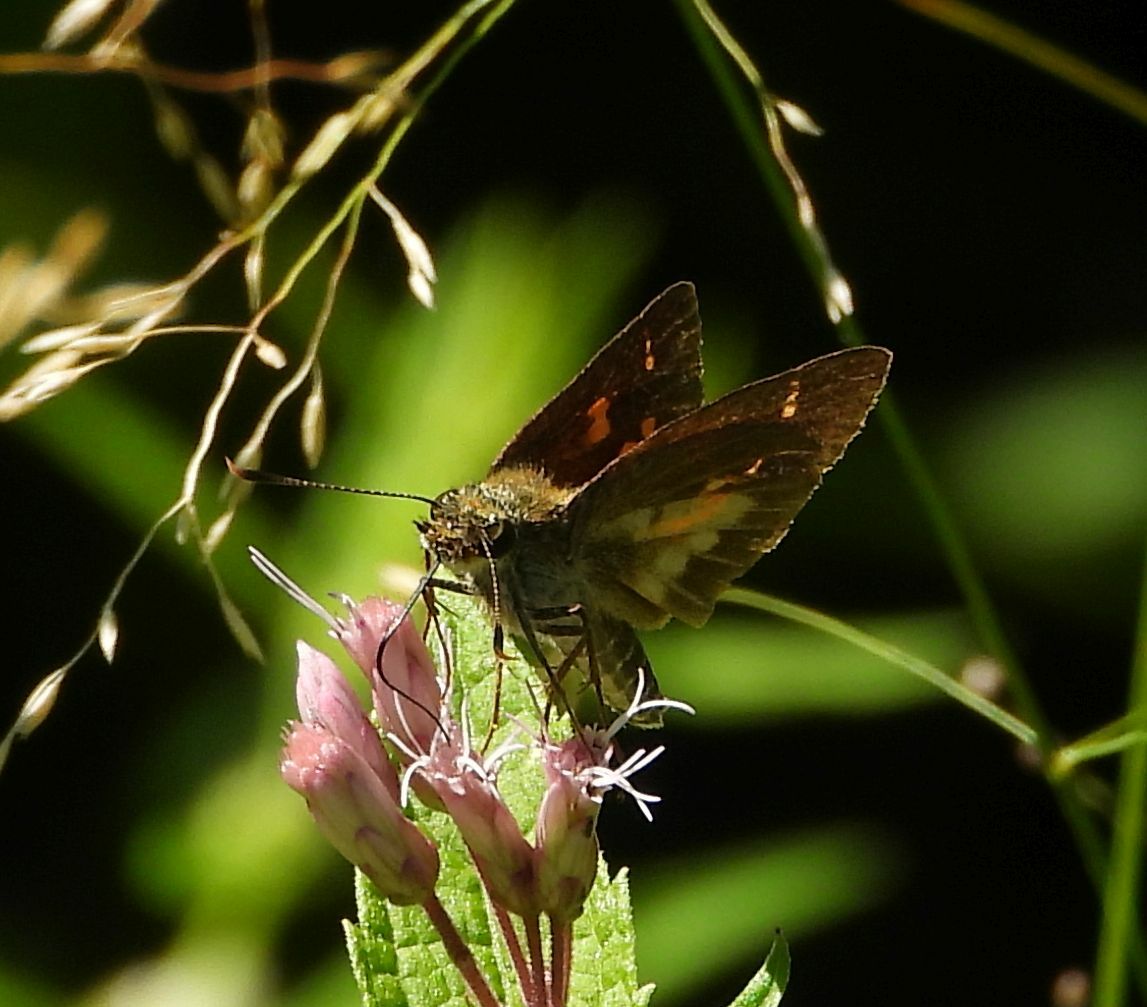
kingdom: Animalia
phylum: Arthropoda
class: Insecta
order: Lepidoptera
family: Hesperiidae
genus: Poanes
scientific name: Poanes viator
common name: Broad-winged skipper
